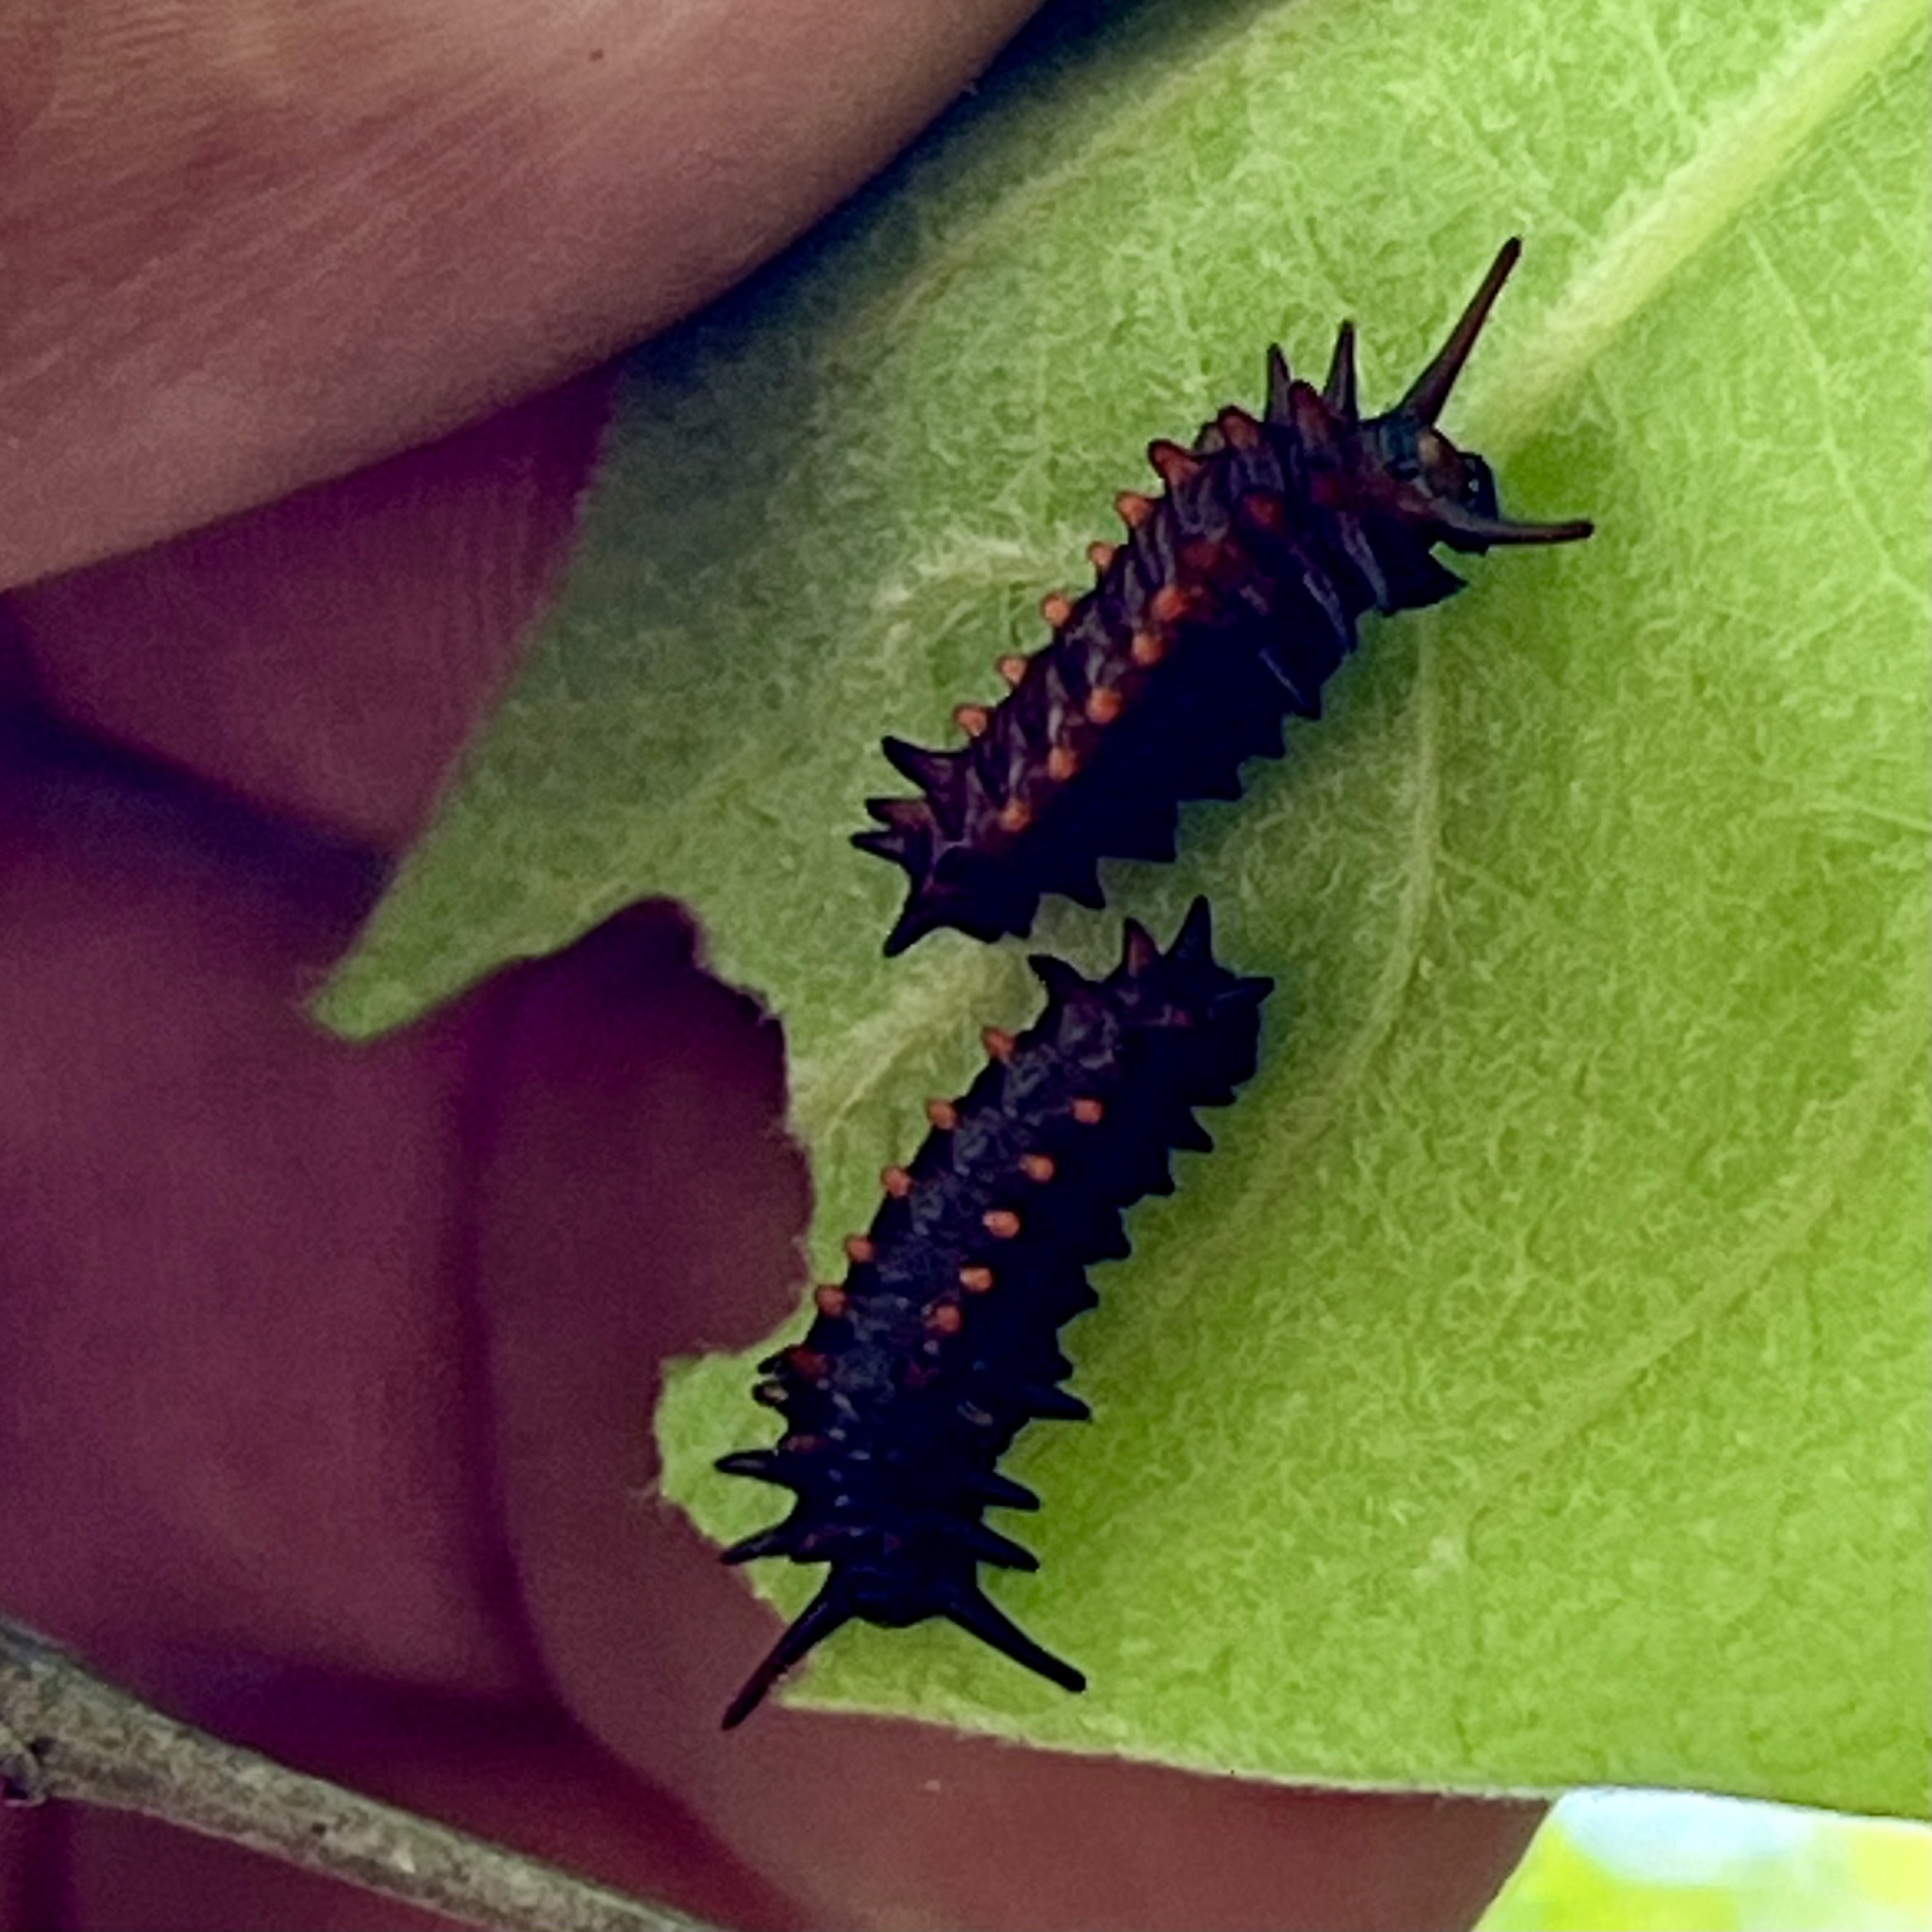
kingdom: Plantae
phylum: Tracheophyta
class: Magnoliopsida
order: Piperales
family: Aristolochiaceae
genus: Isotrema
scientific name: Isotrema tomentosum
